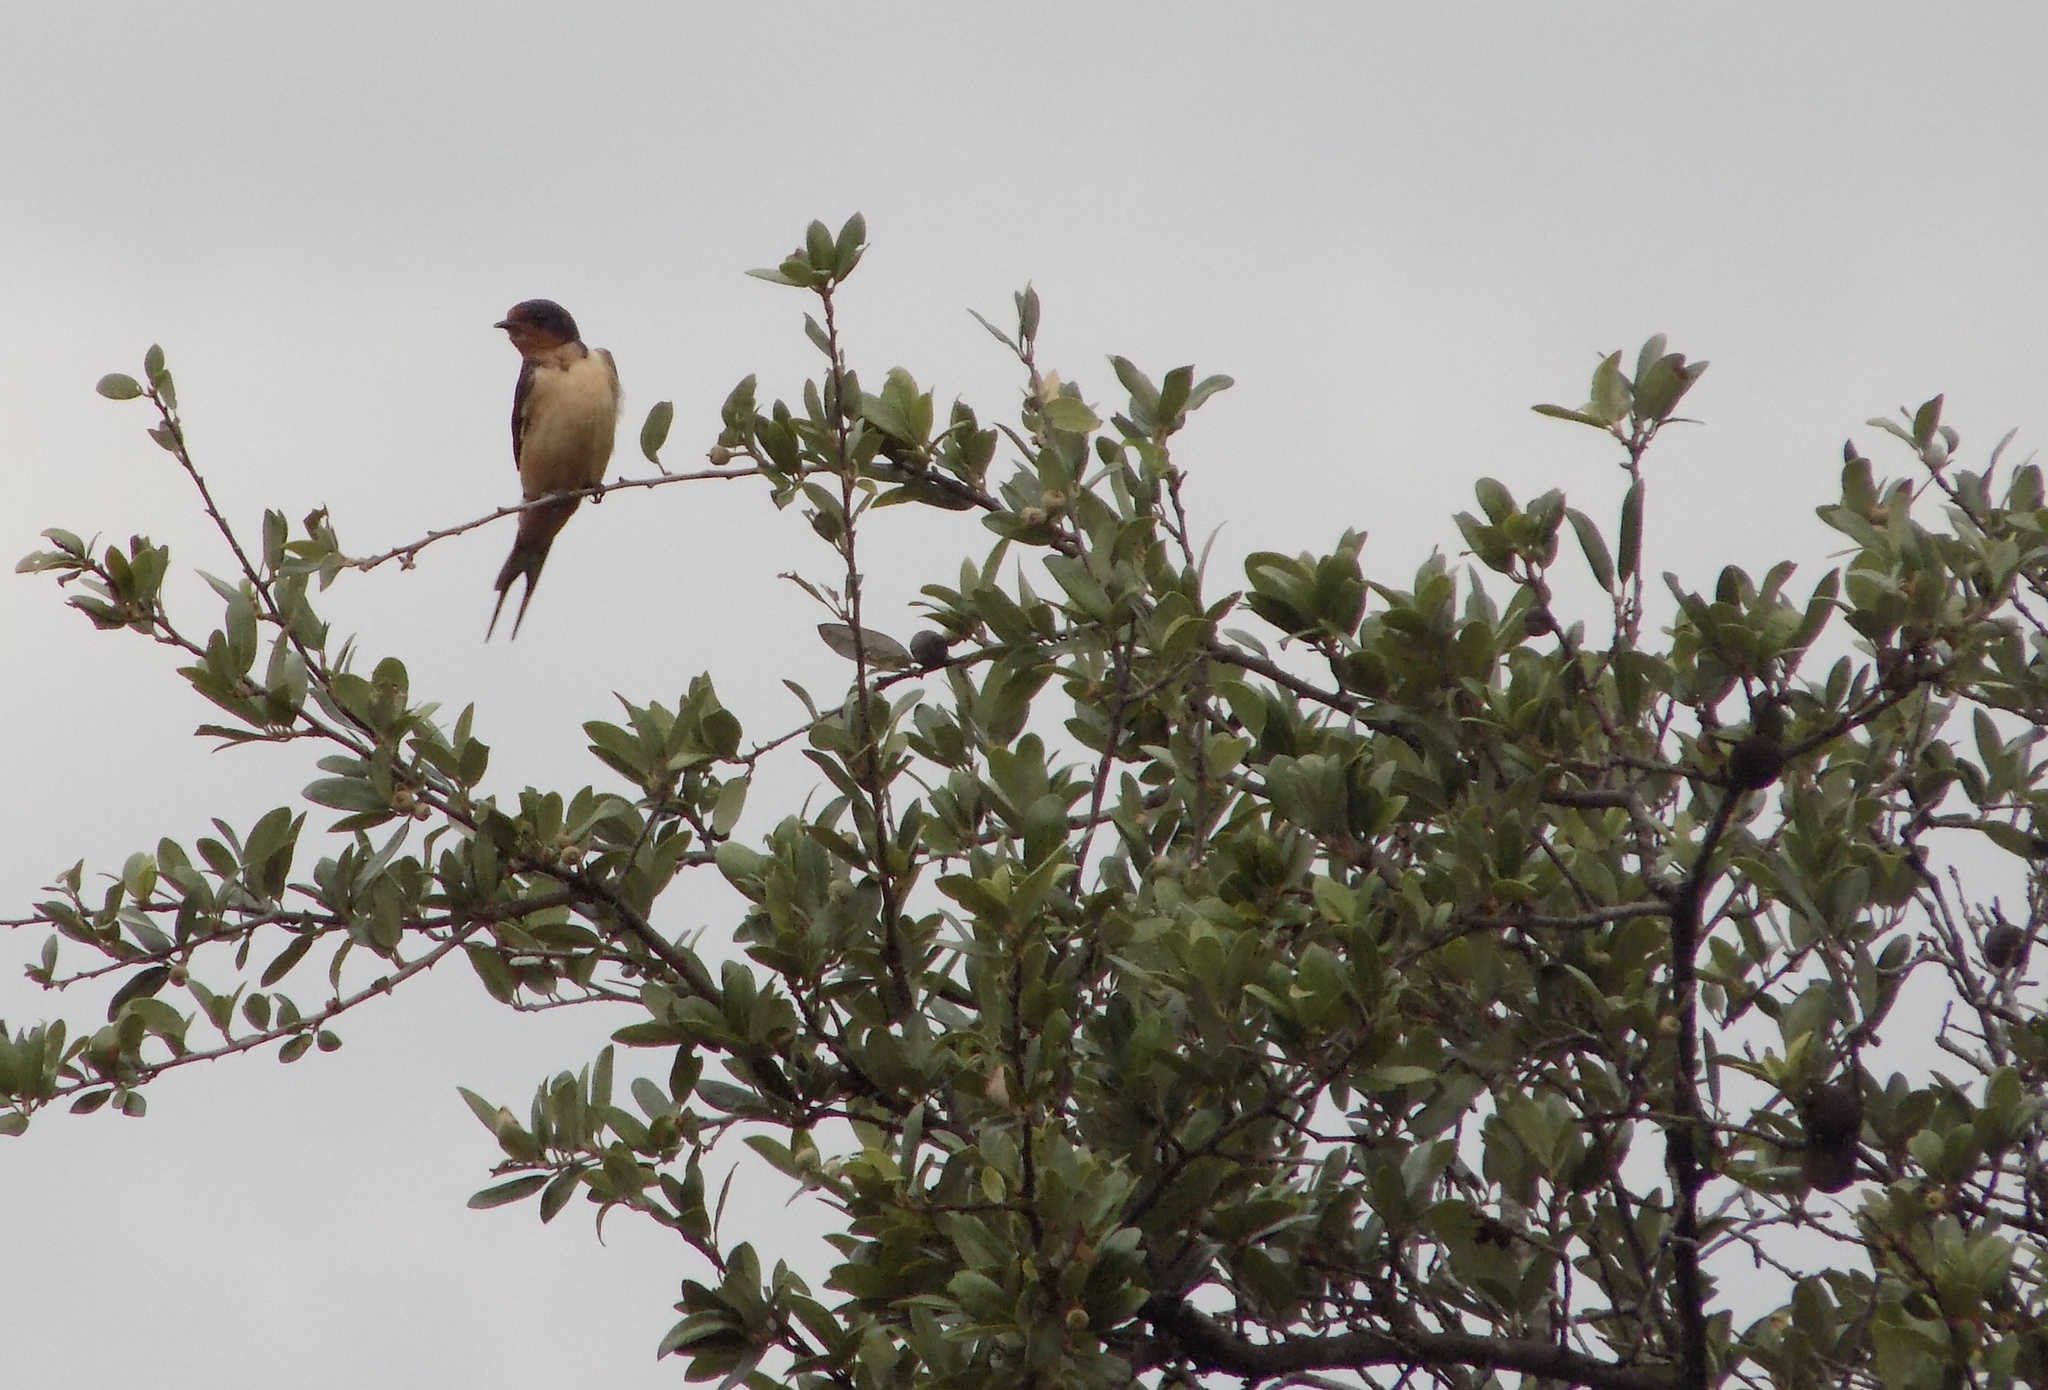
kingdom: Animalia
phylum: Chordata
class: Aves
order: Passeriformes
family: Hirundinidae
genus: Hirundo
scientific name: Hirundo rustica
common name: Barn swallow
